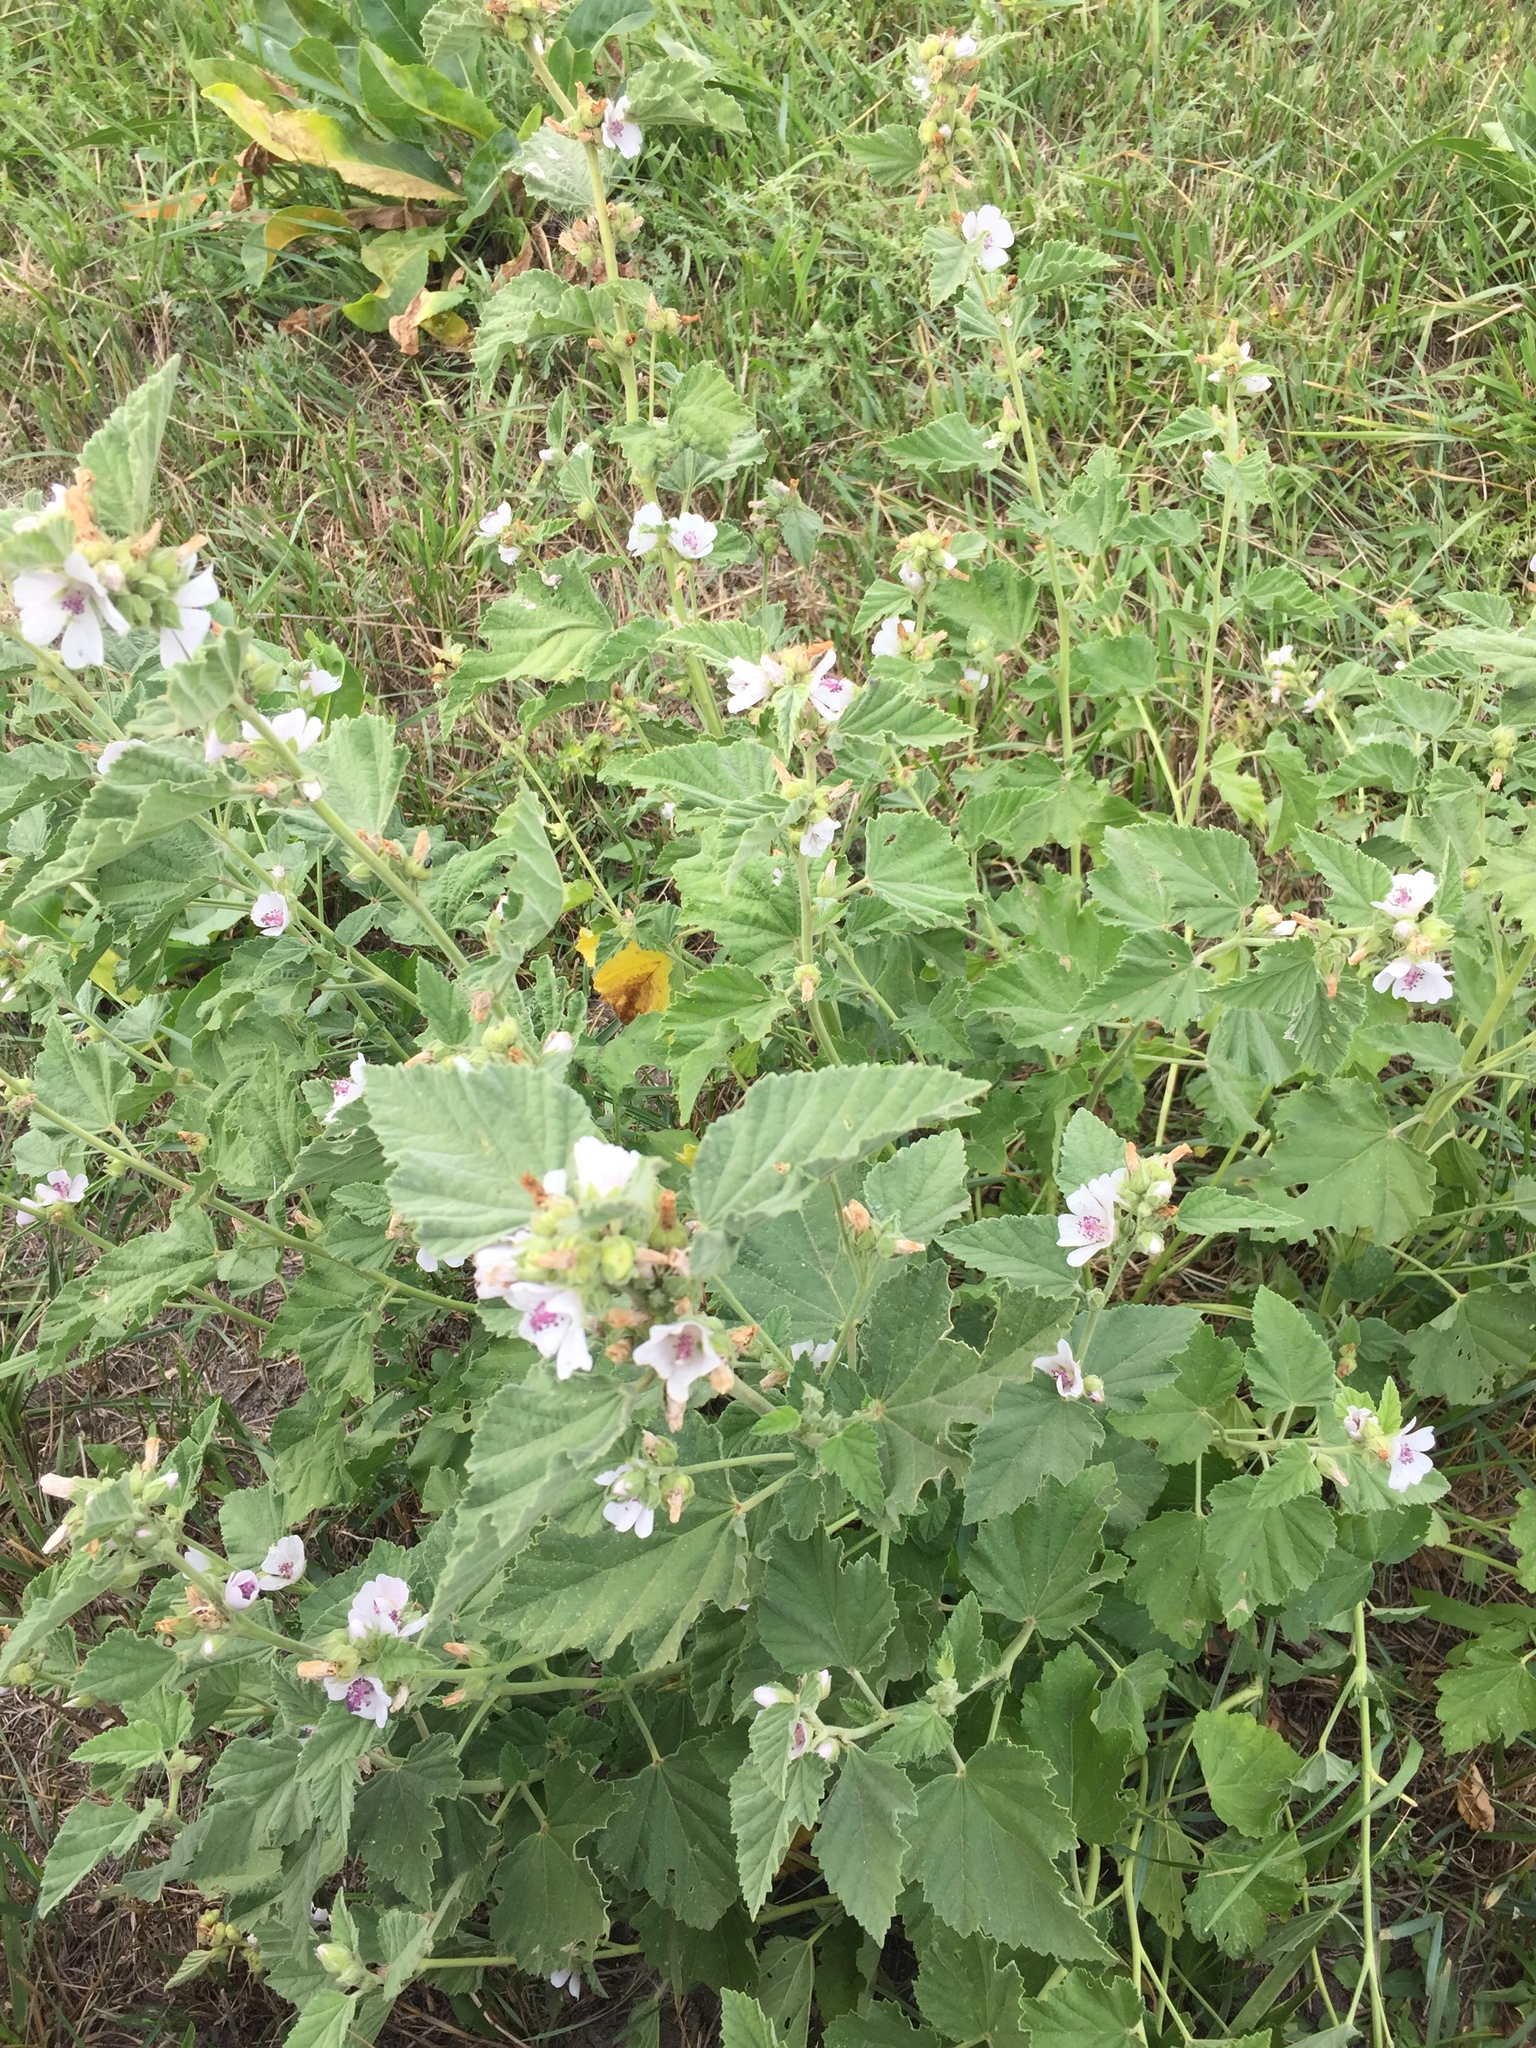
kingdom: Plantae
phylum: Tracheophyta
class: Magnoliopsida
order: Malvales
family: Malvaceae
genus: Althaea
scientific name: Althaea officinalis
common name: Marsh-mallow
